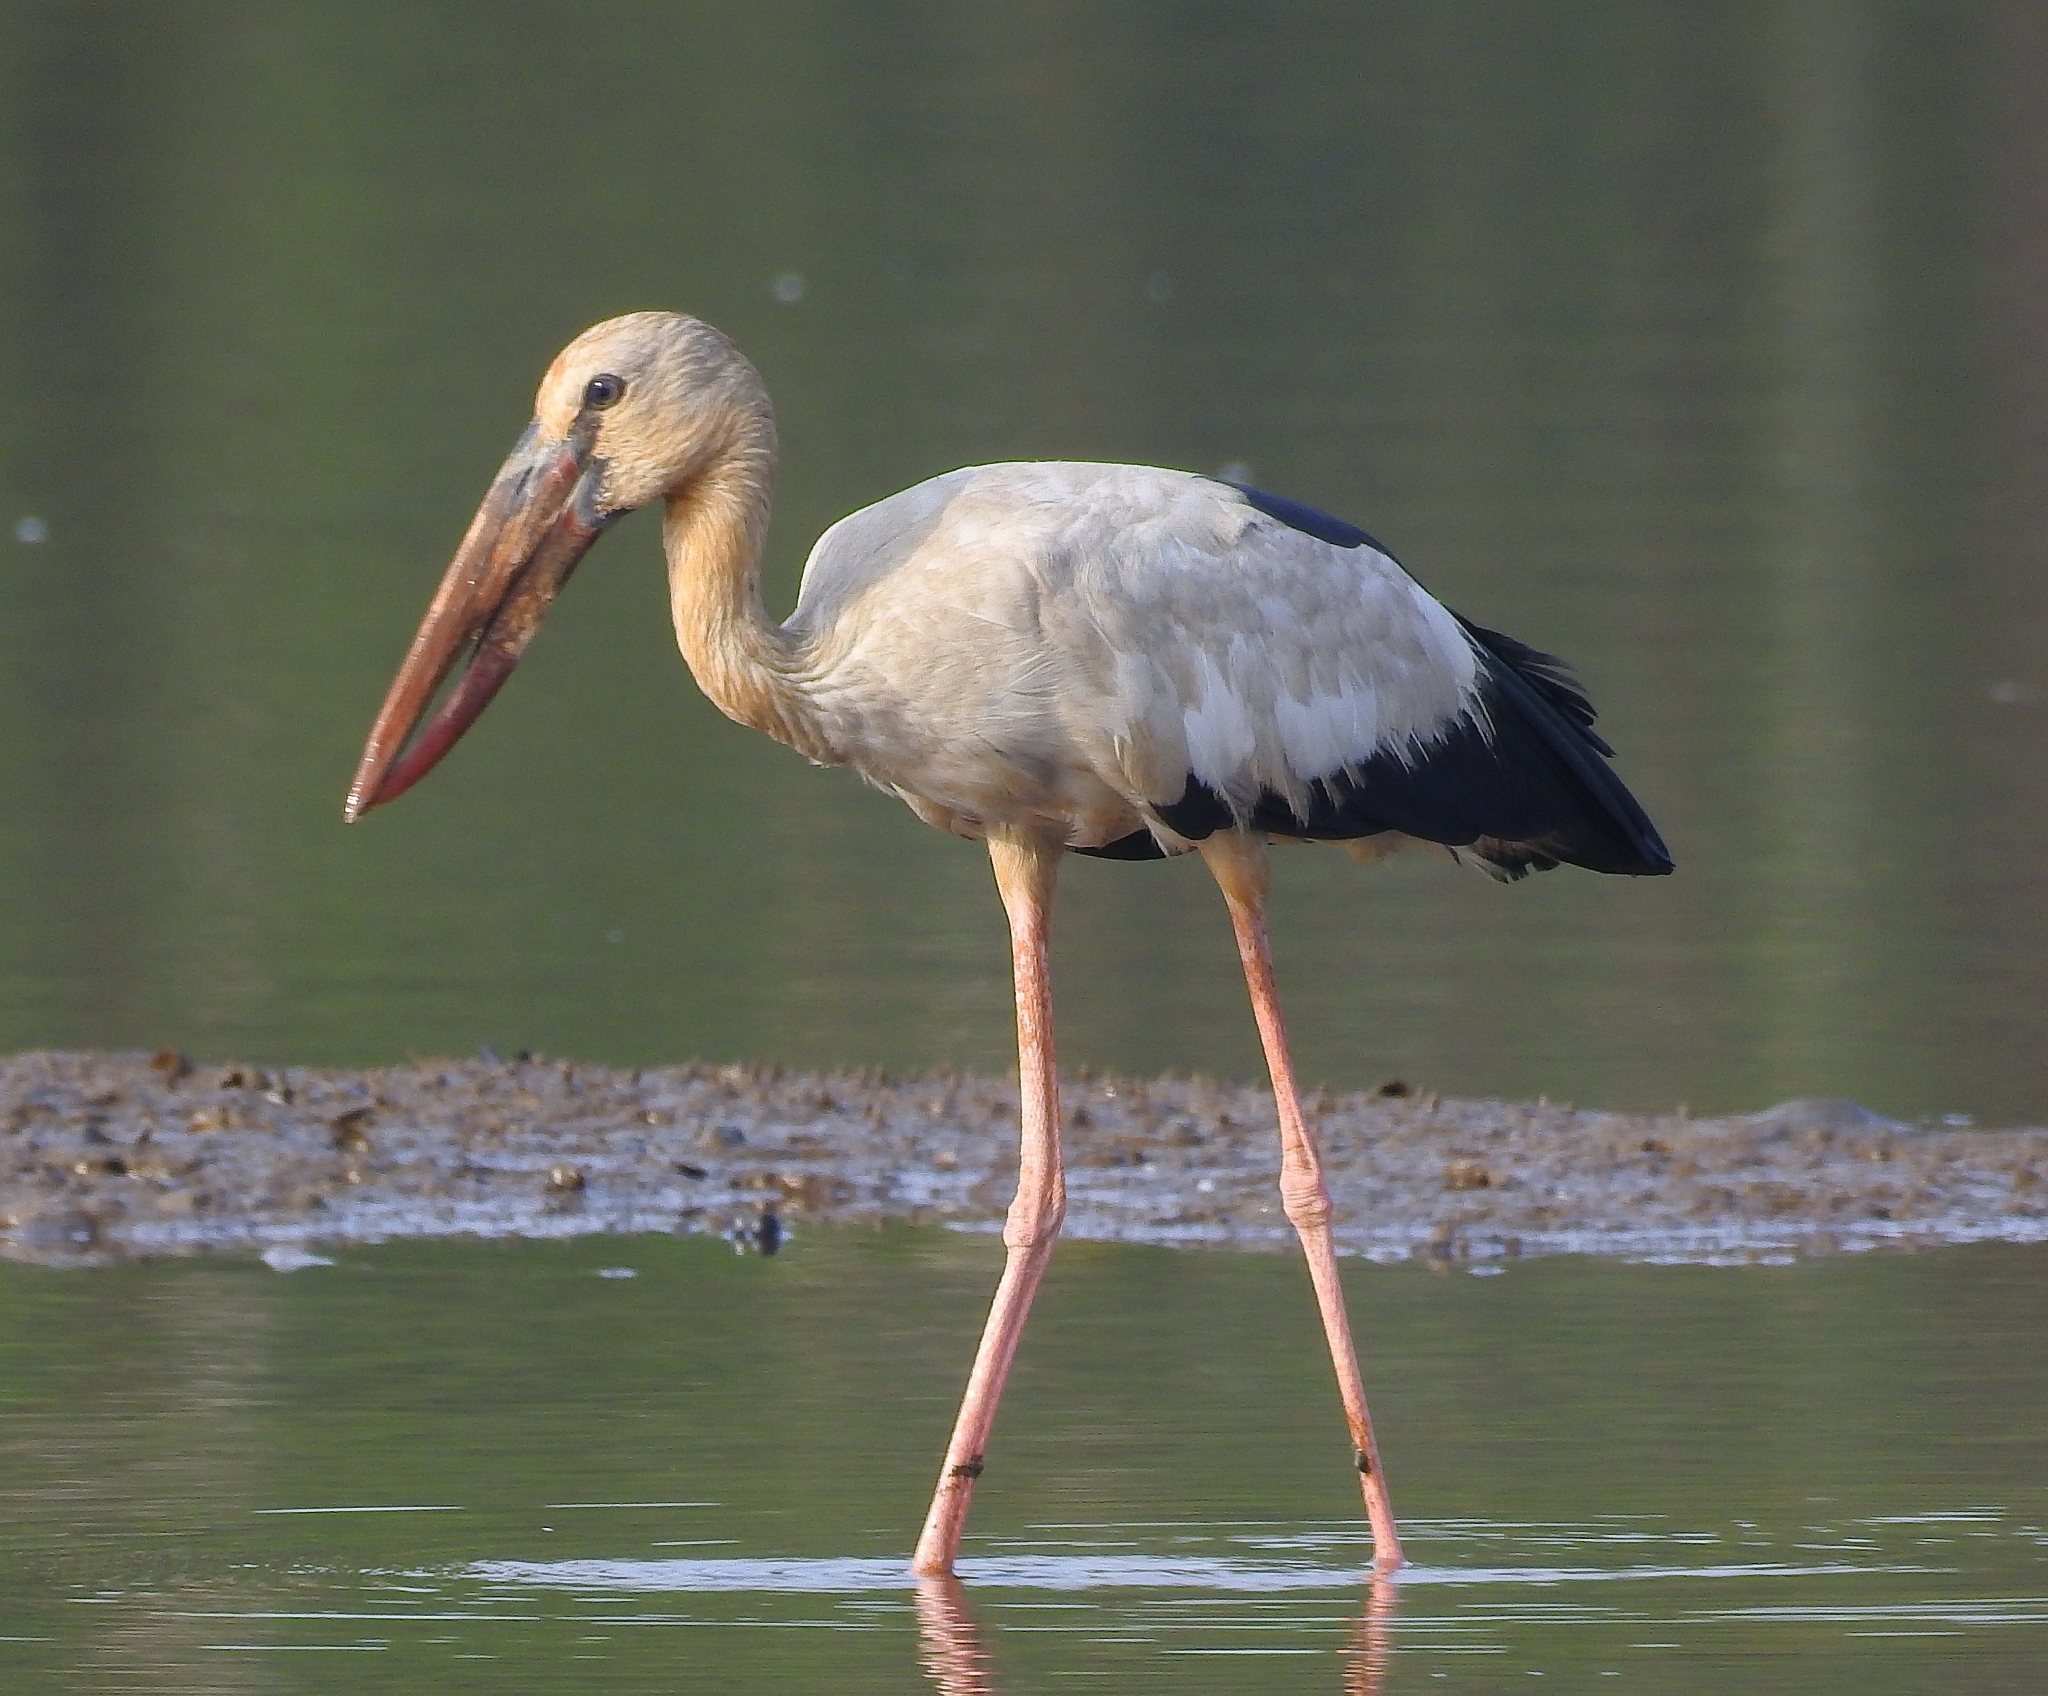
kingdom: Animalia
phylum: Chordata
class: Aves
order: Ciconiiformes
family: Ciconiidae
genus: Anastomus
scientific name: Anastomus oscitans
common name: Asian openbill
